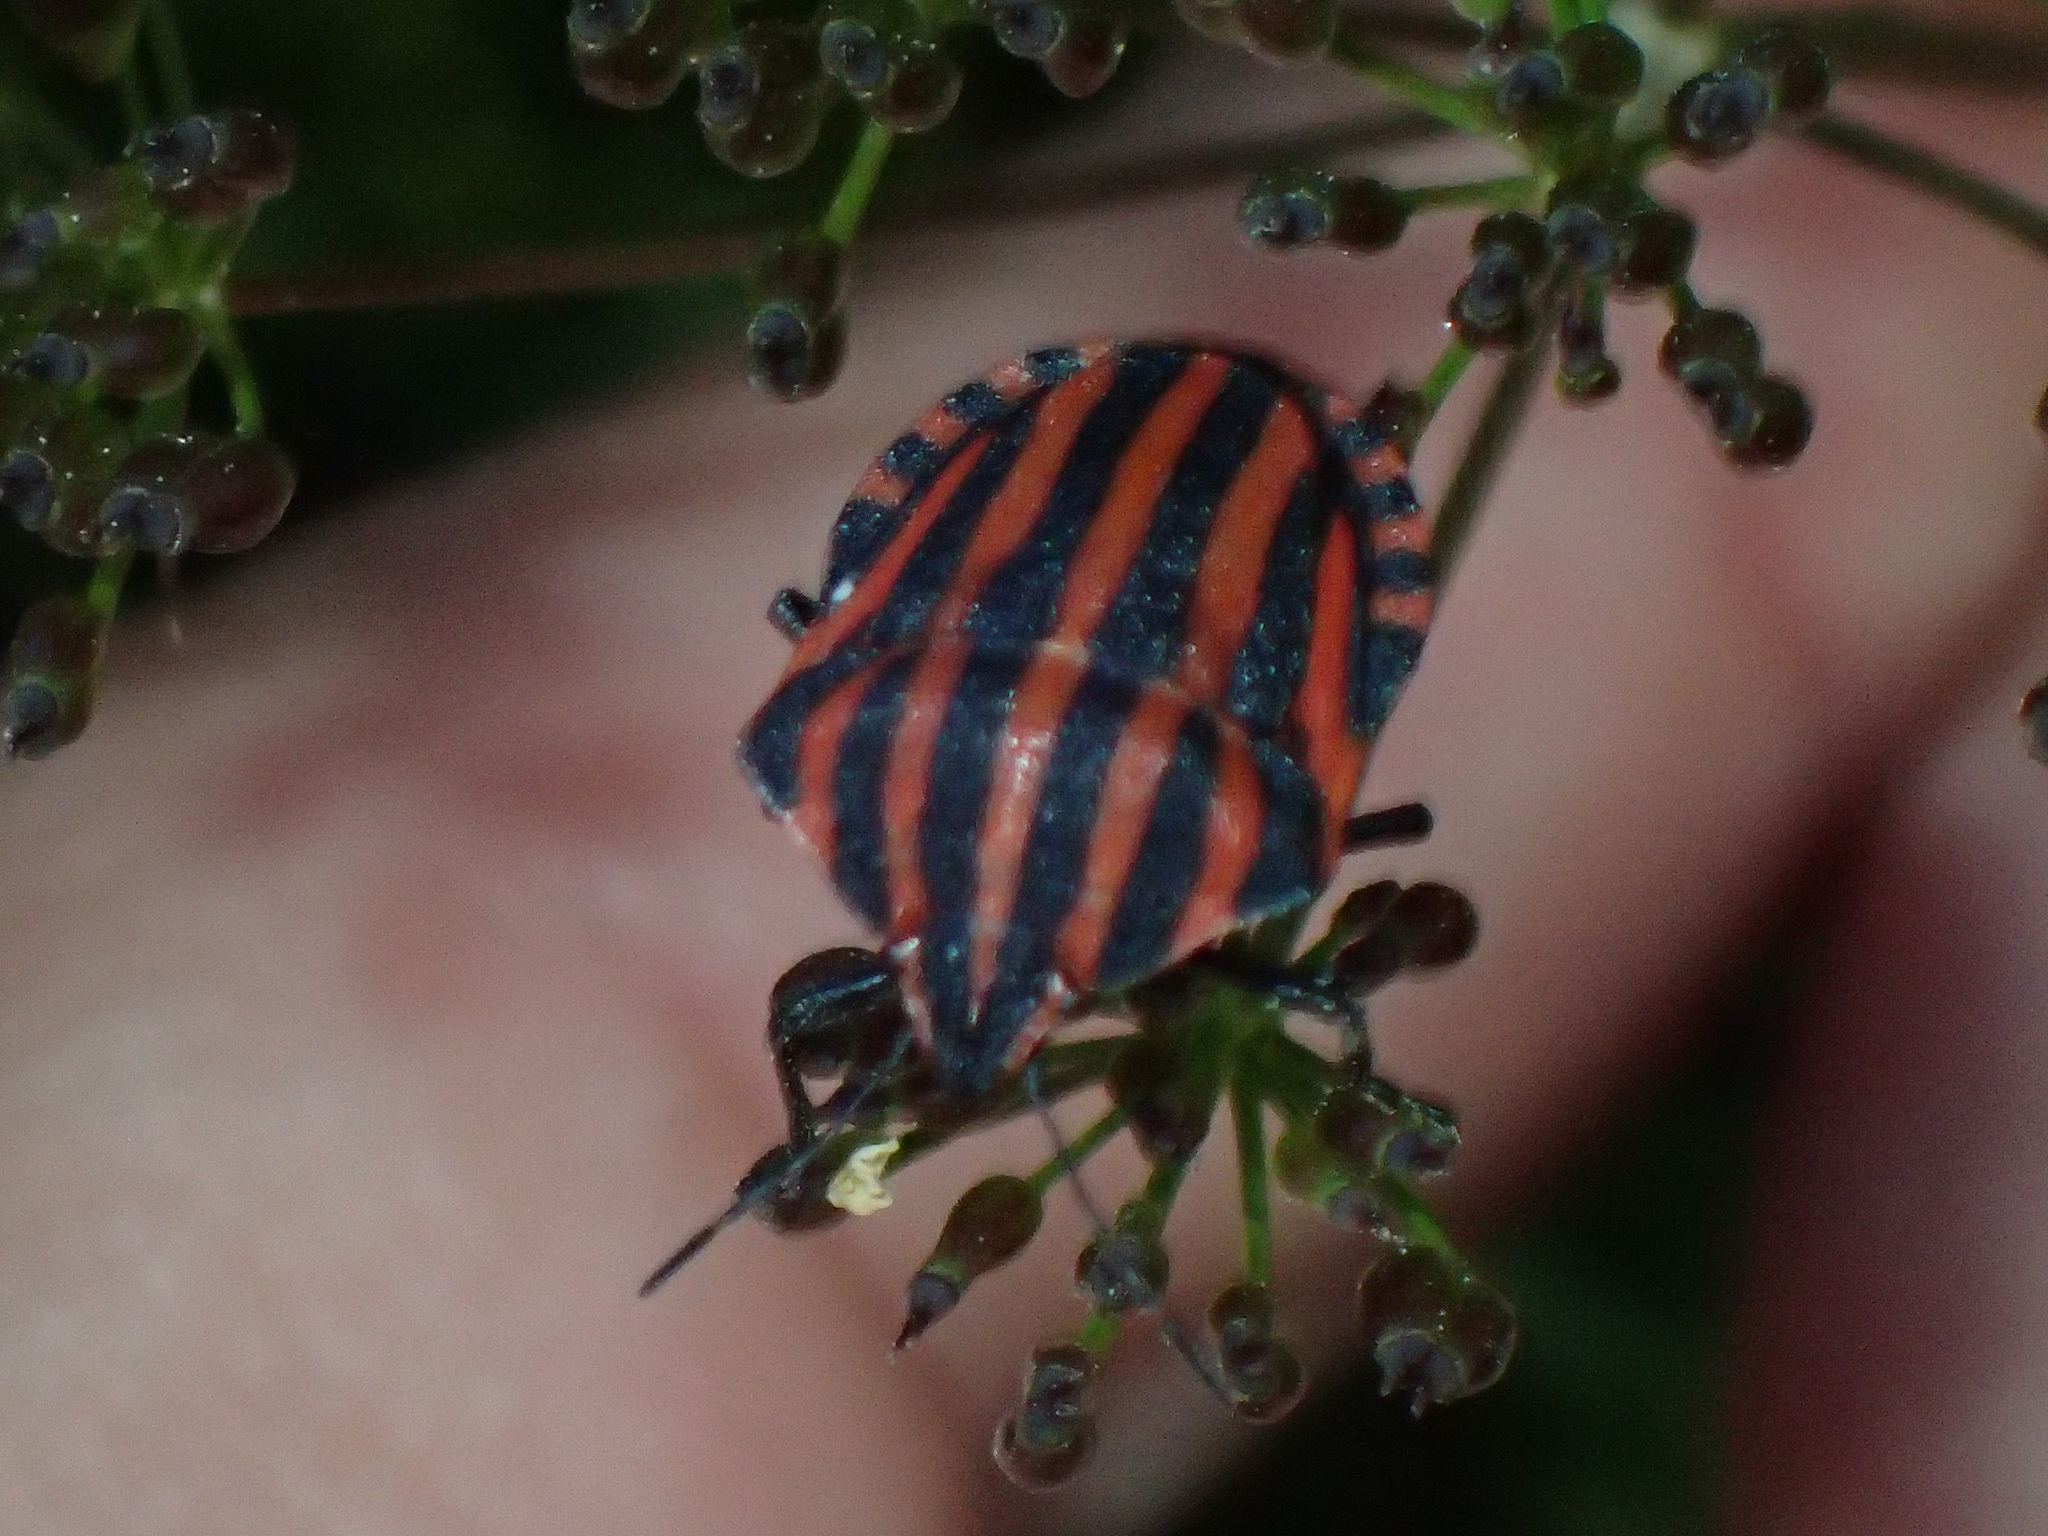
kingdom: Animalia
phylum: Arthropoda
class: Insecta
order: Hemiptera
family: Pentatomidae
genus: Graphosoma
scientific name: Graphosoma italicum
